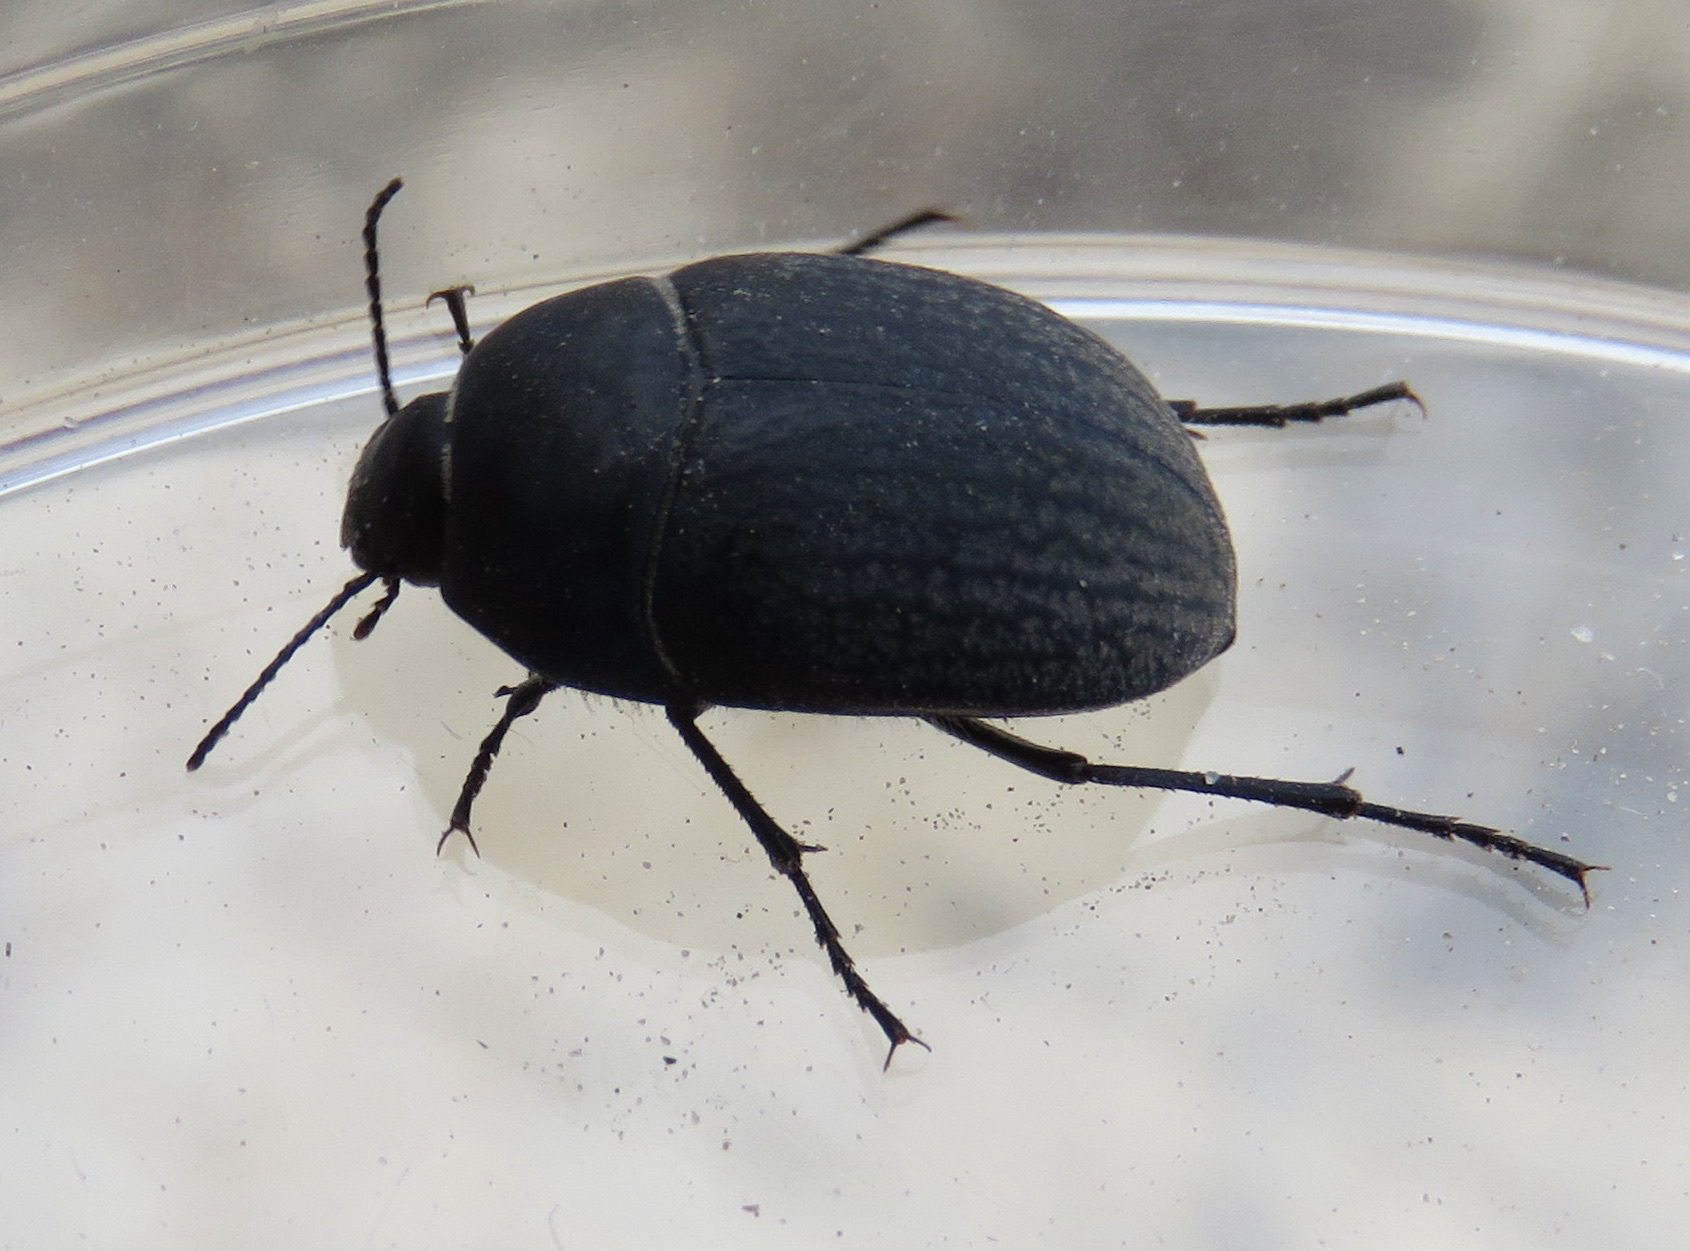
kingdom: Animalia
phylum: Arthropoda
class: Insecta
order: Coleoptera
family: Tenebrionidae
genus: Eusattus
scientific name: Eusattus reticulatus
